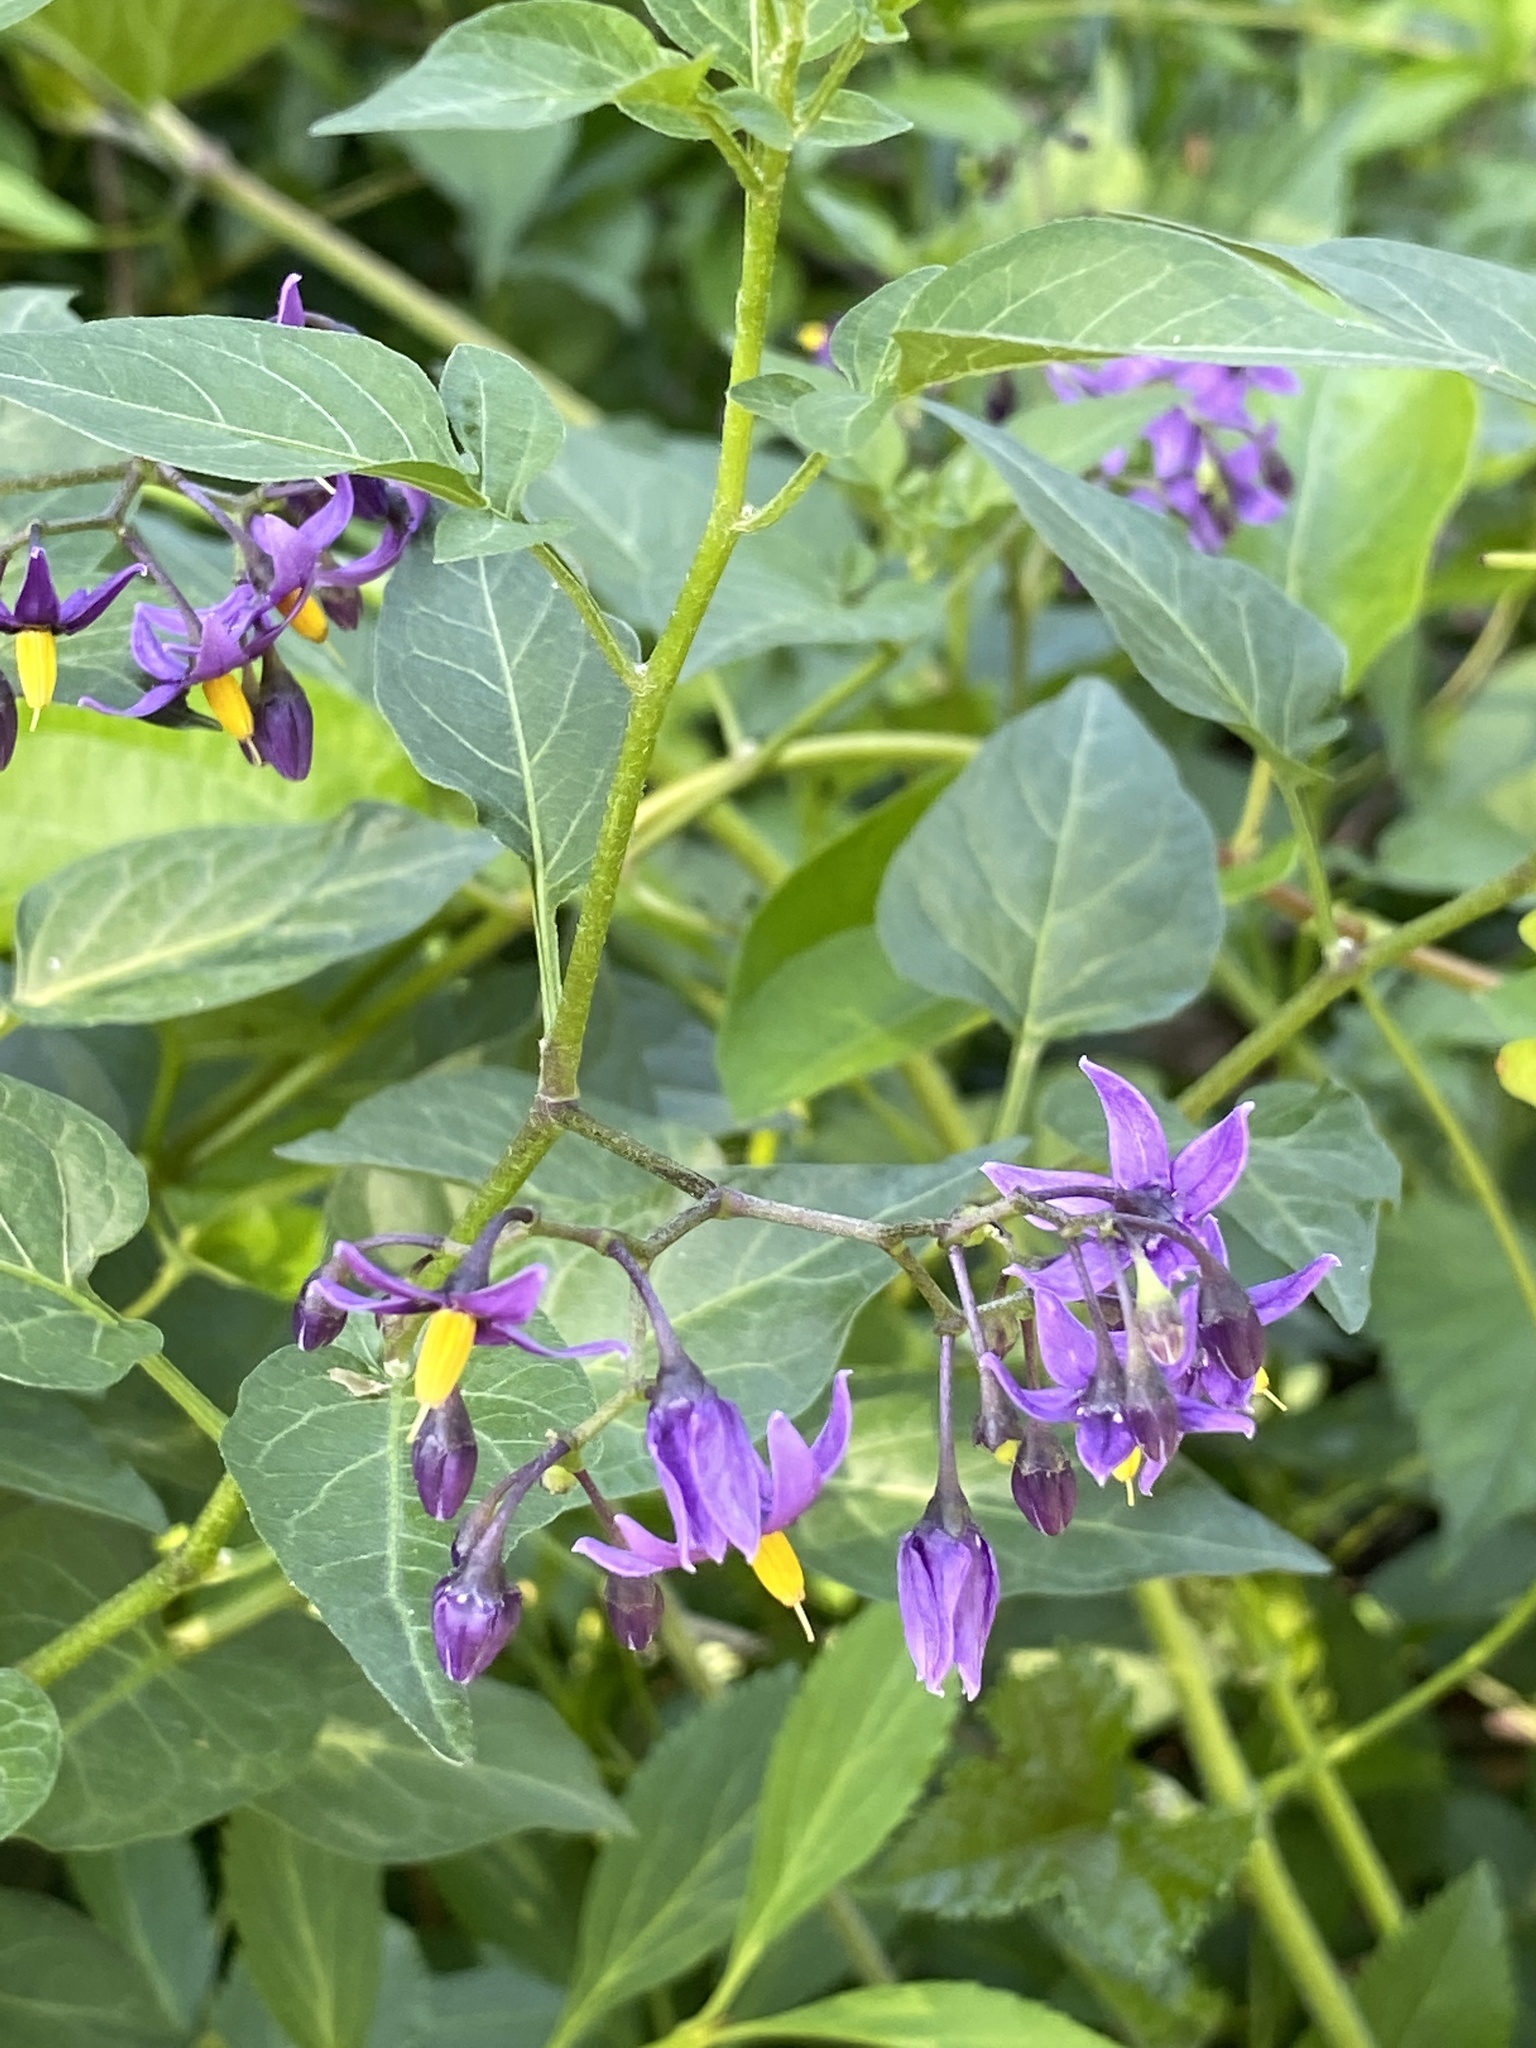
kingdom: Plantae
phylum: Tracheophyta
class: Magnoliopsida
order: Solanales
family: Solanaceae
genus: Solanum
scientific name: Solanum dulcamara
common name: Climbing nightshade
